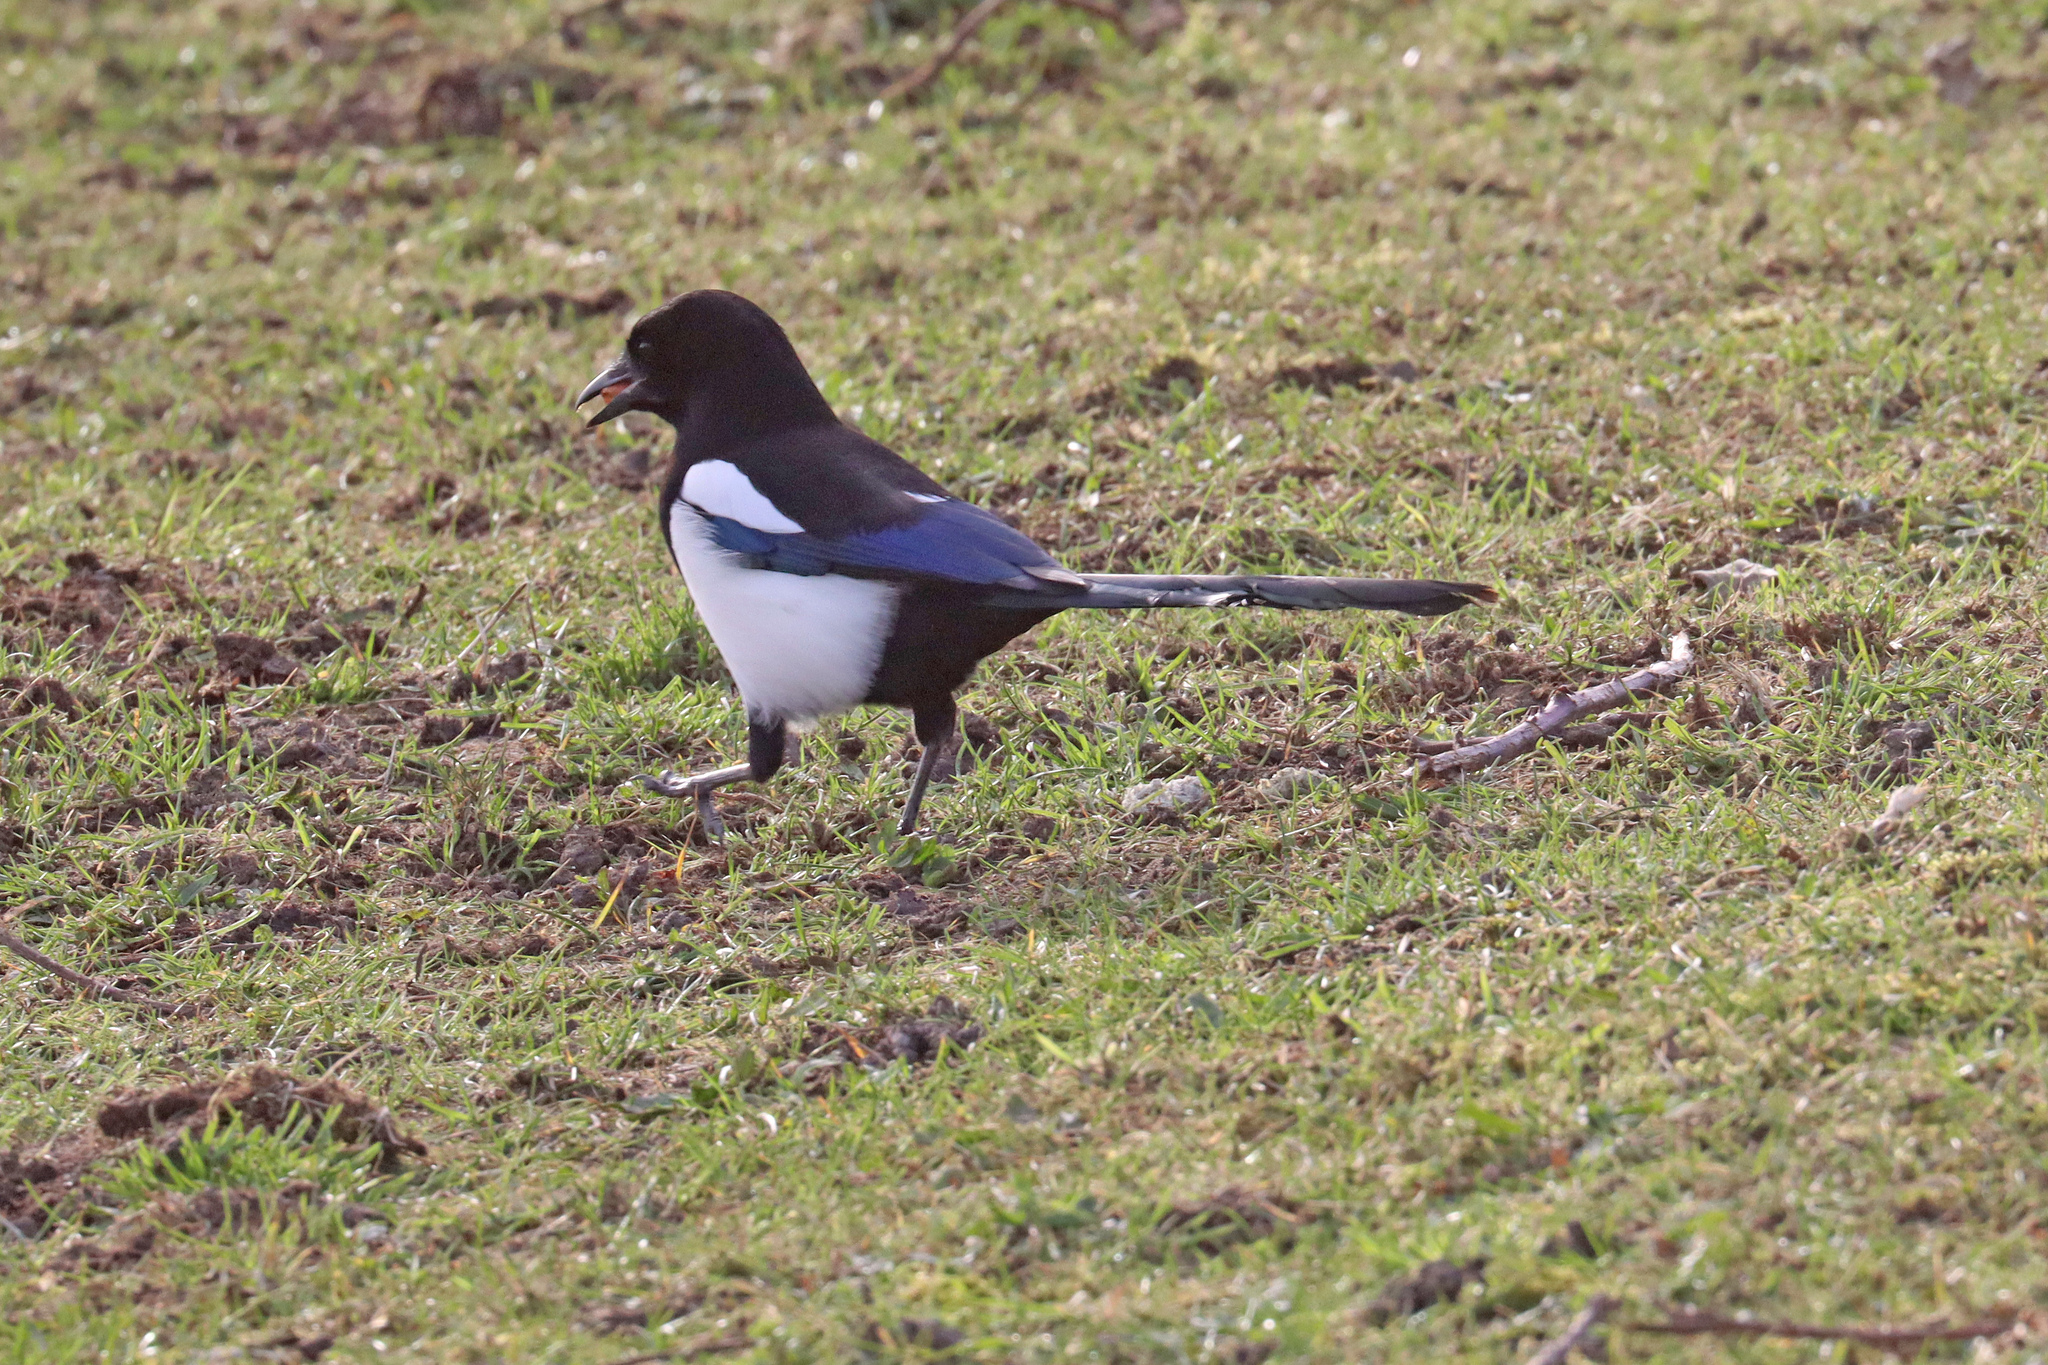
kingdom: Animalia
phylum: Chordata
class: Aves
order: Passeriformes
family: Corvidae
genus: Pica
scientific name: Pica pica
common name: Eurasian magpie
